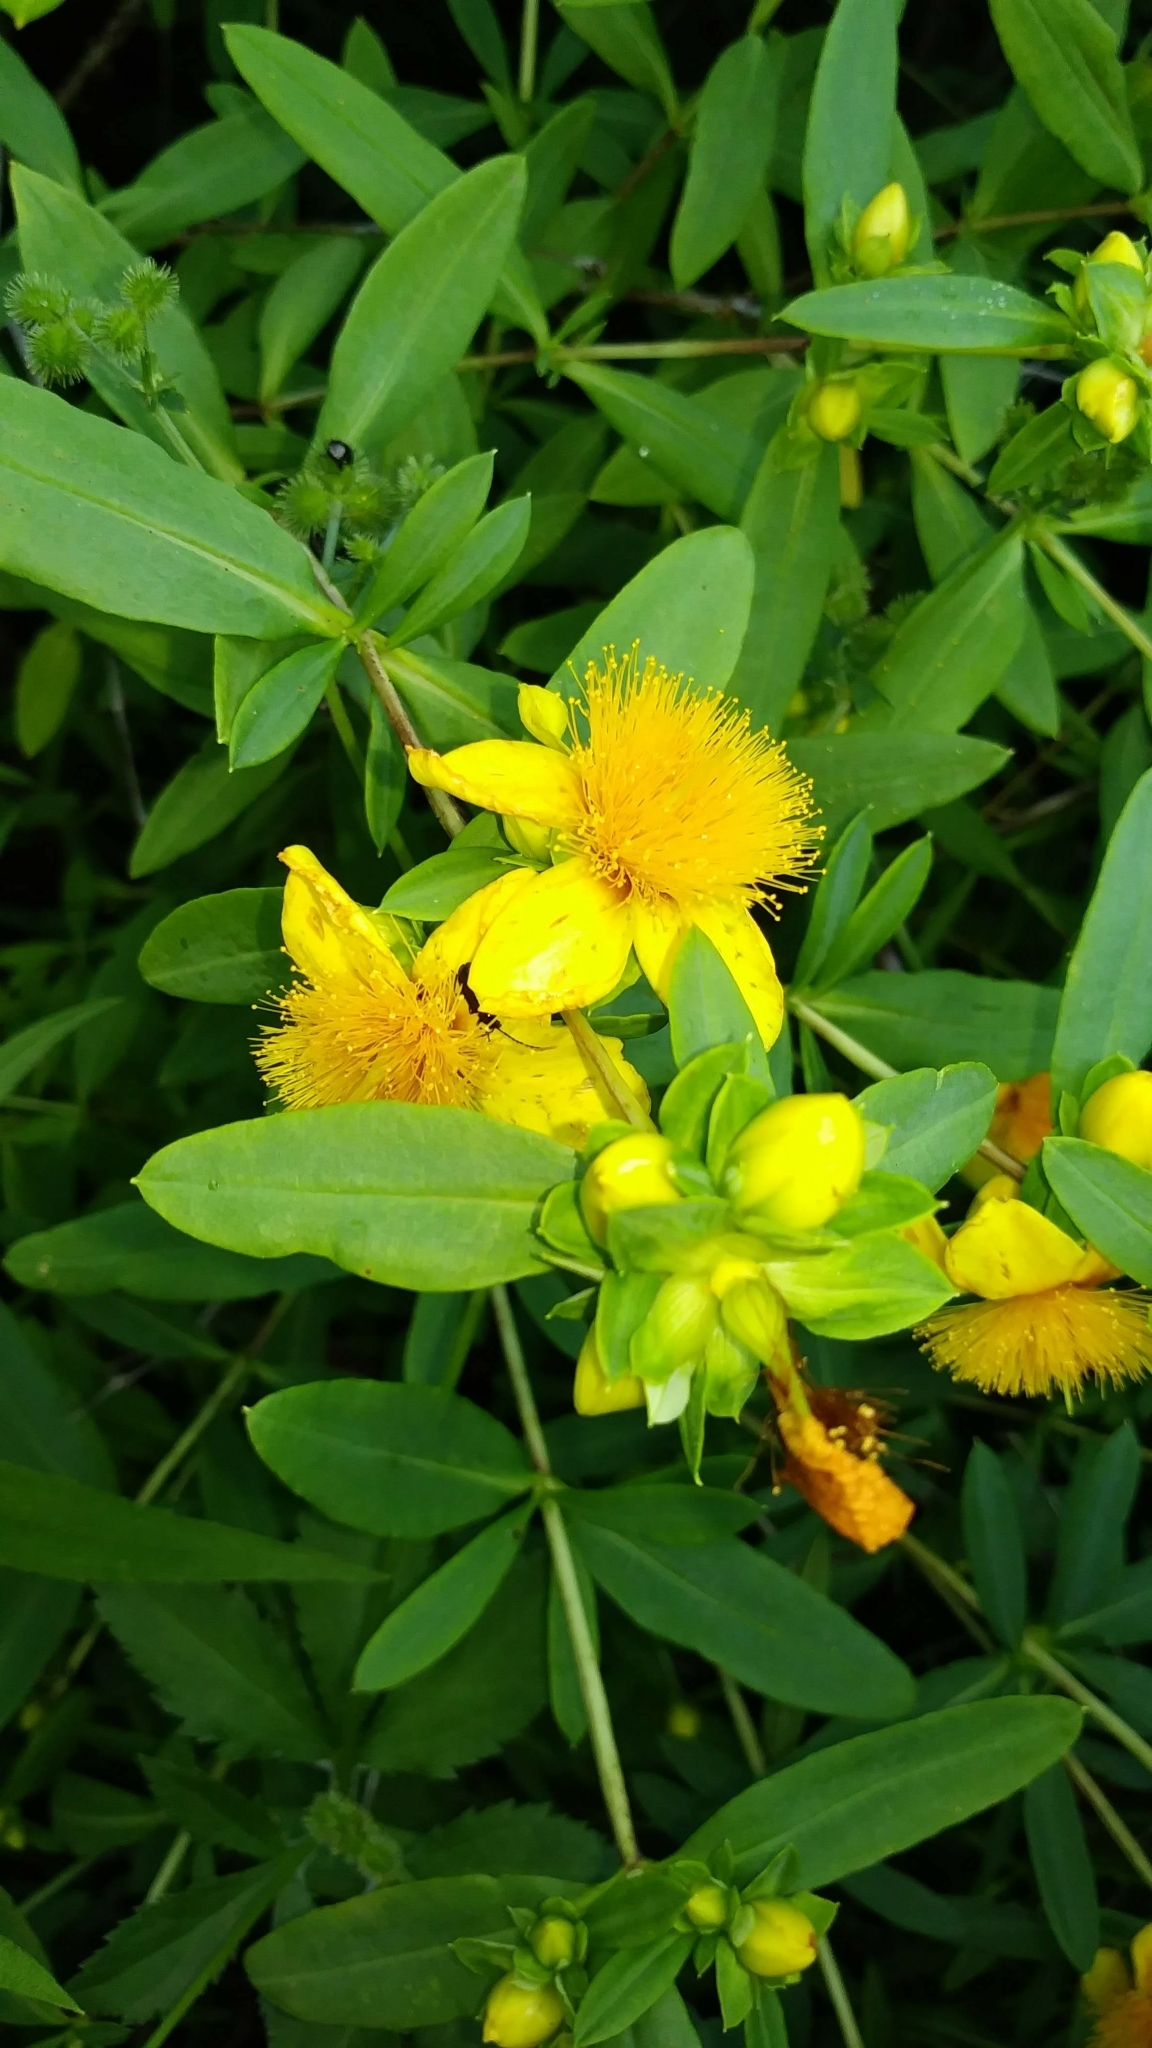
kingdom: Plantae
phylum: Tracheophyta
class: Magnoliopsida
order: Malpighiales
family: Hypericaceae
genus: Hypericum
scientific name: Hypericum prolificum
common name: Shrubby st. john's-wort
